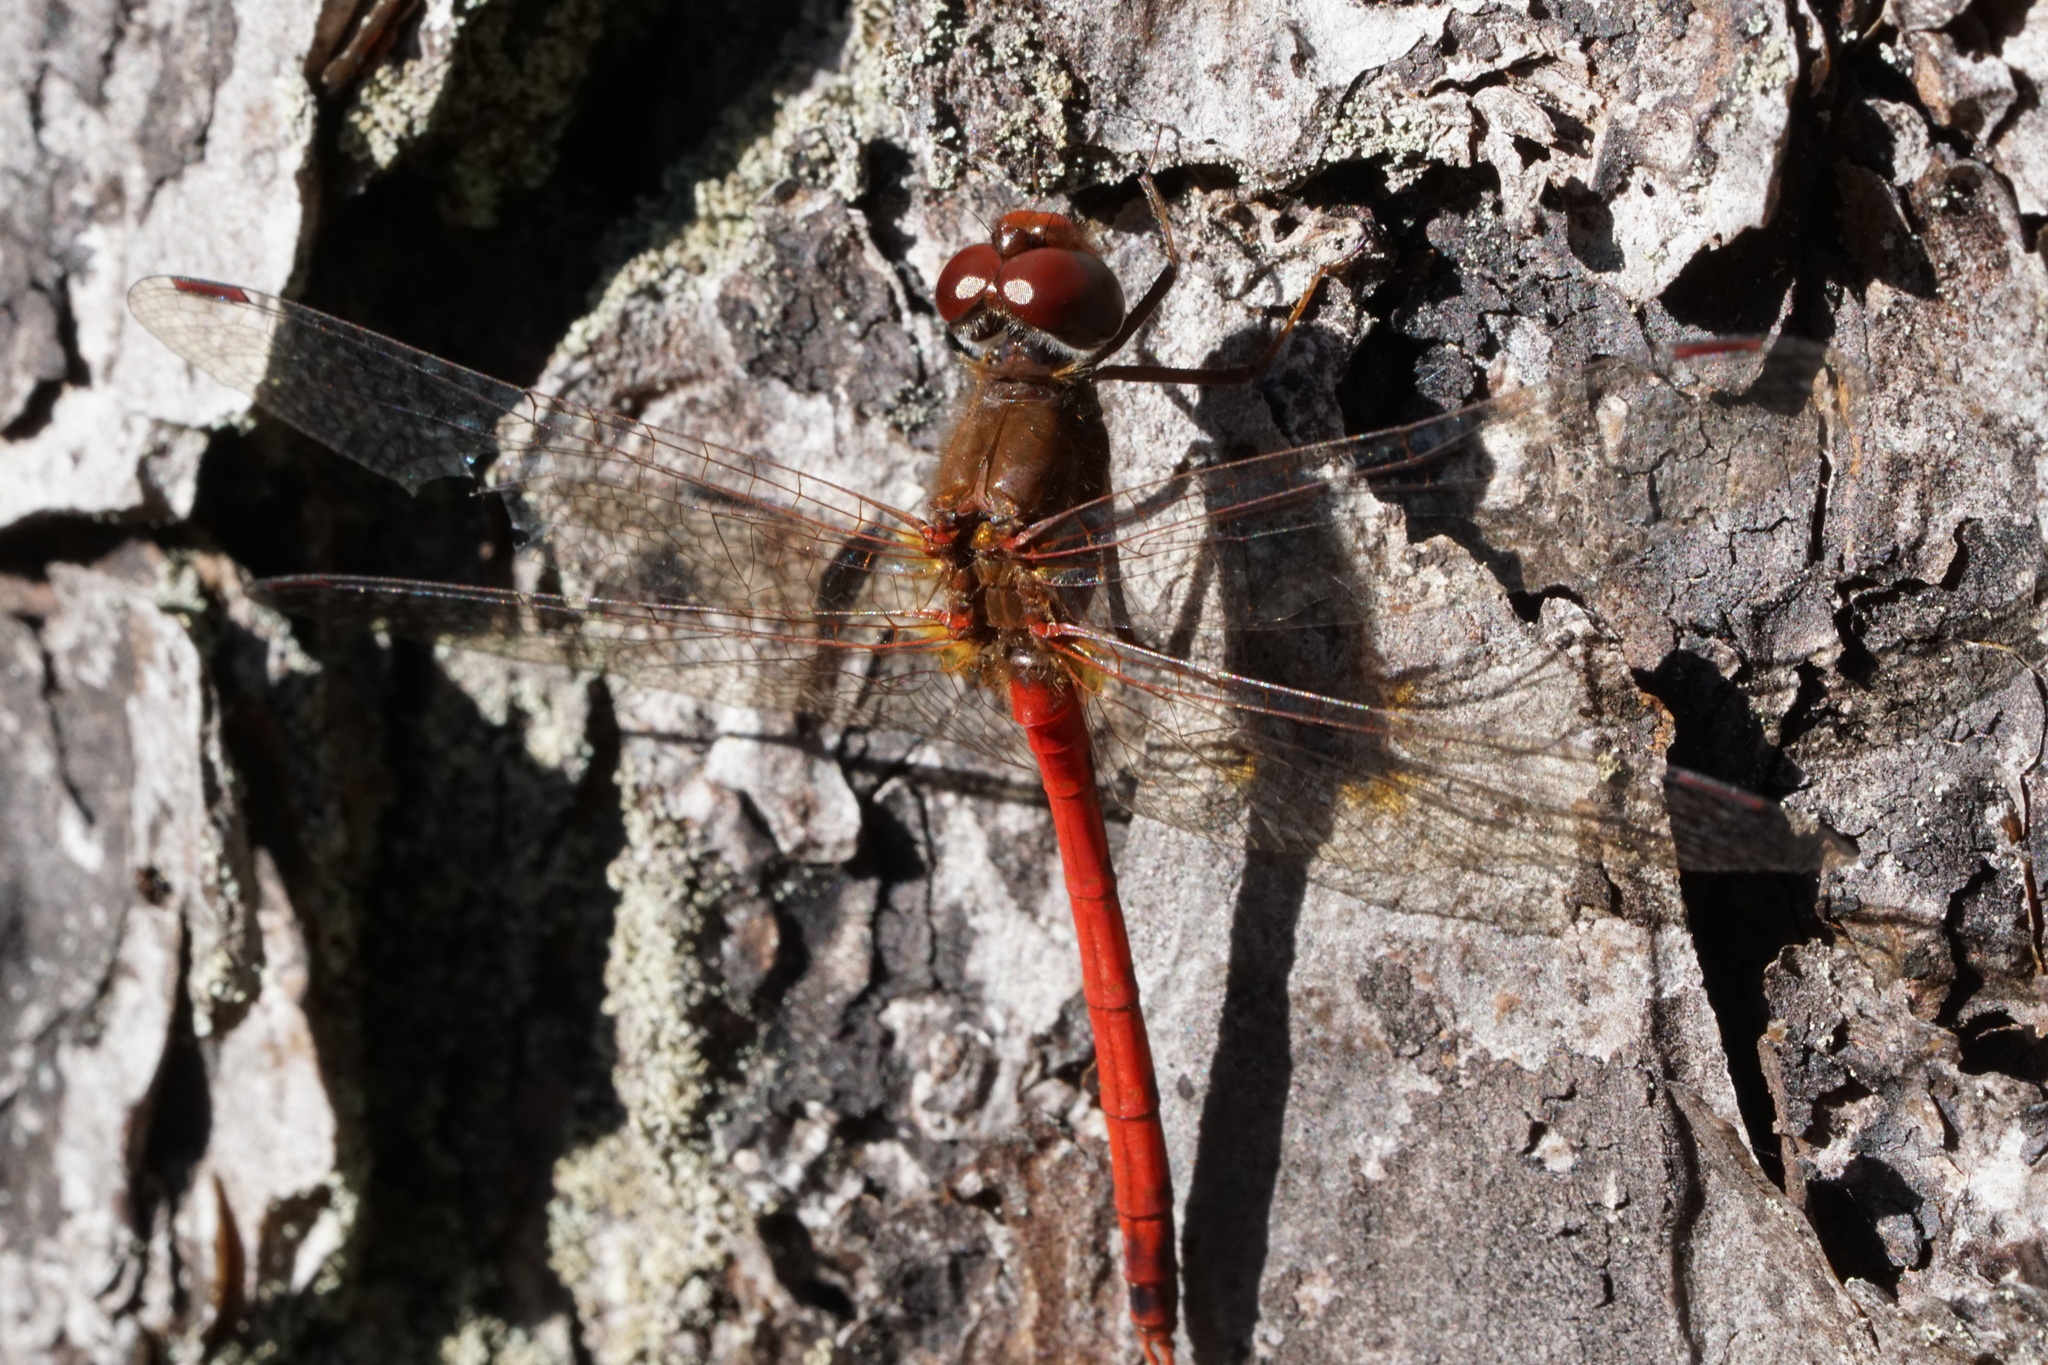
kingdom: Animalia
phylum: Arthropoda
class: Insecta
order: Odonata
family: Libellulidae
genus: Sympetrum
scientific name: Sympetrum vicinum
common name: Autumn meadowhawk
